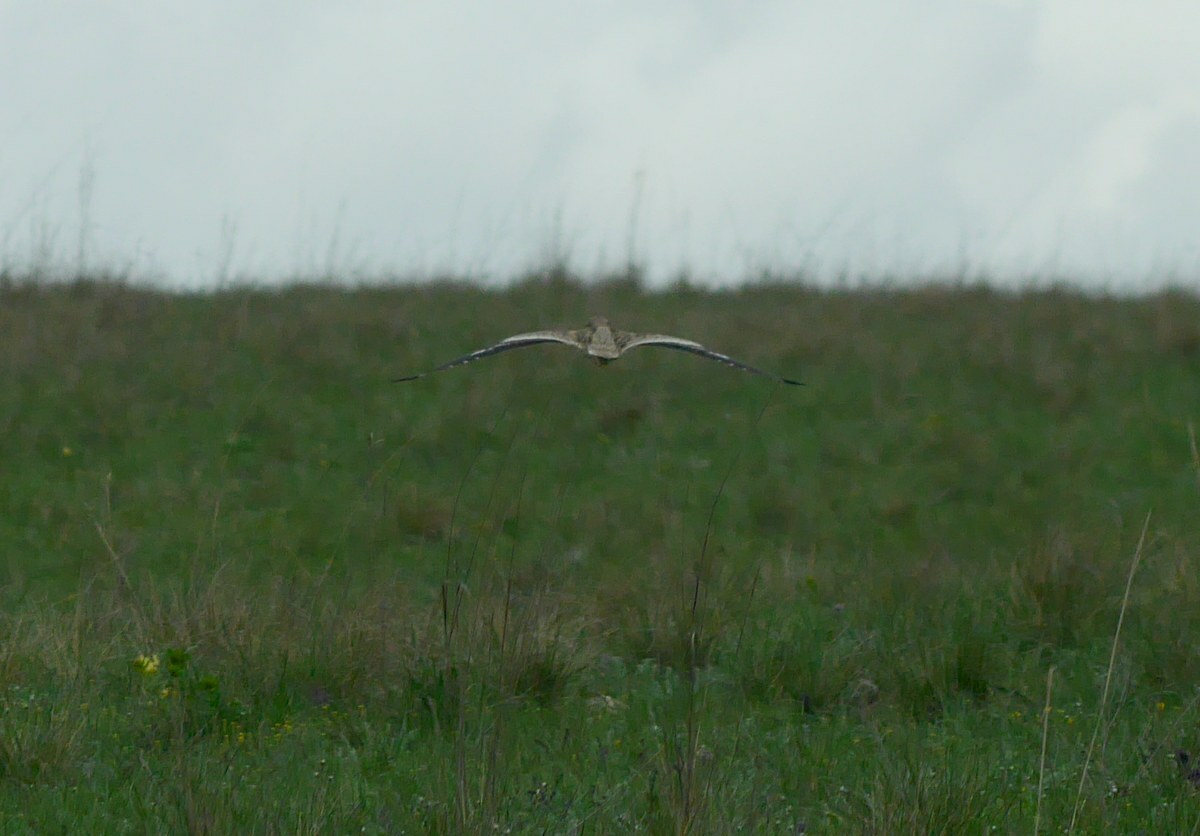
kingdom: Animalia
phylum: Chordata
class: Aves
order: Charadriiformes
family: Burhinidae
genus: Burhinus
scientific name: Burhinus oedicnemus
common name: Eurasian stone-curlew
